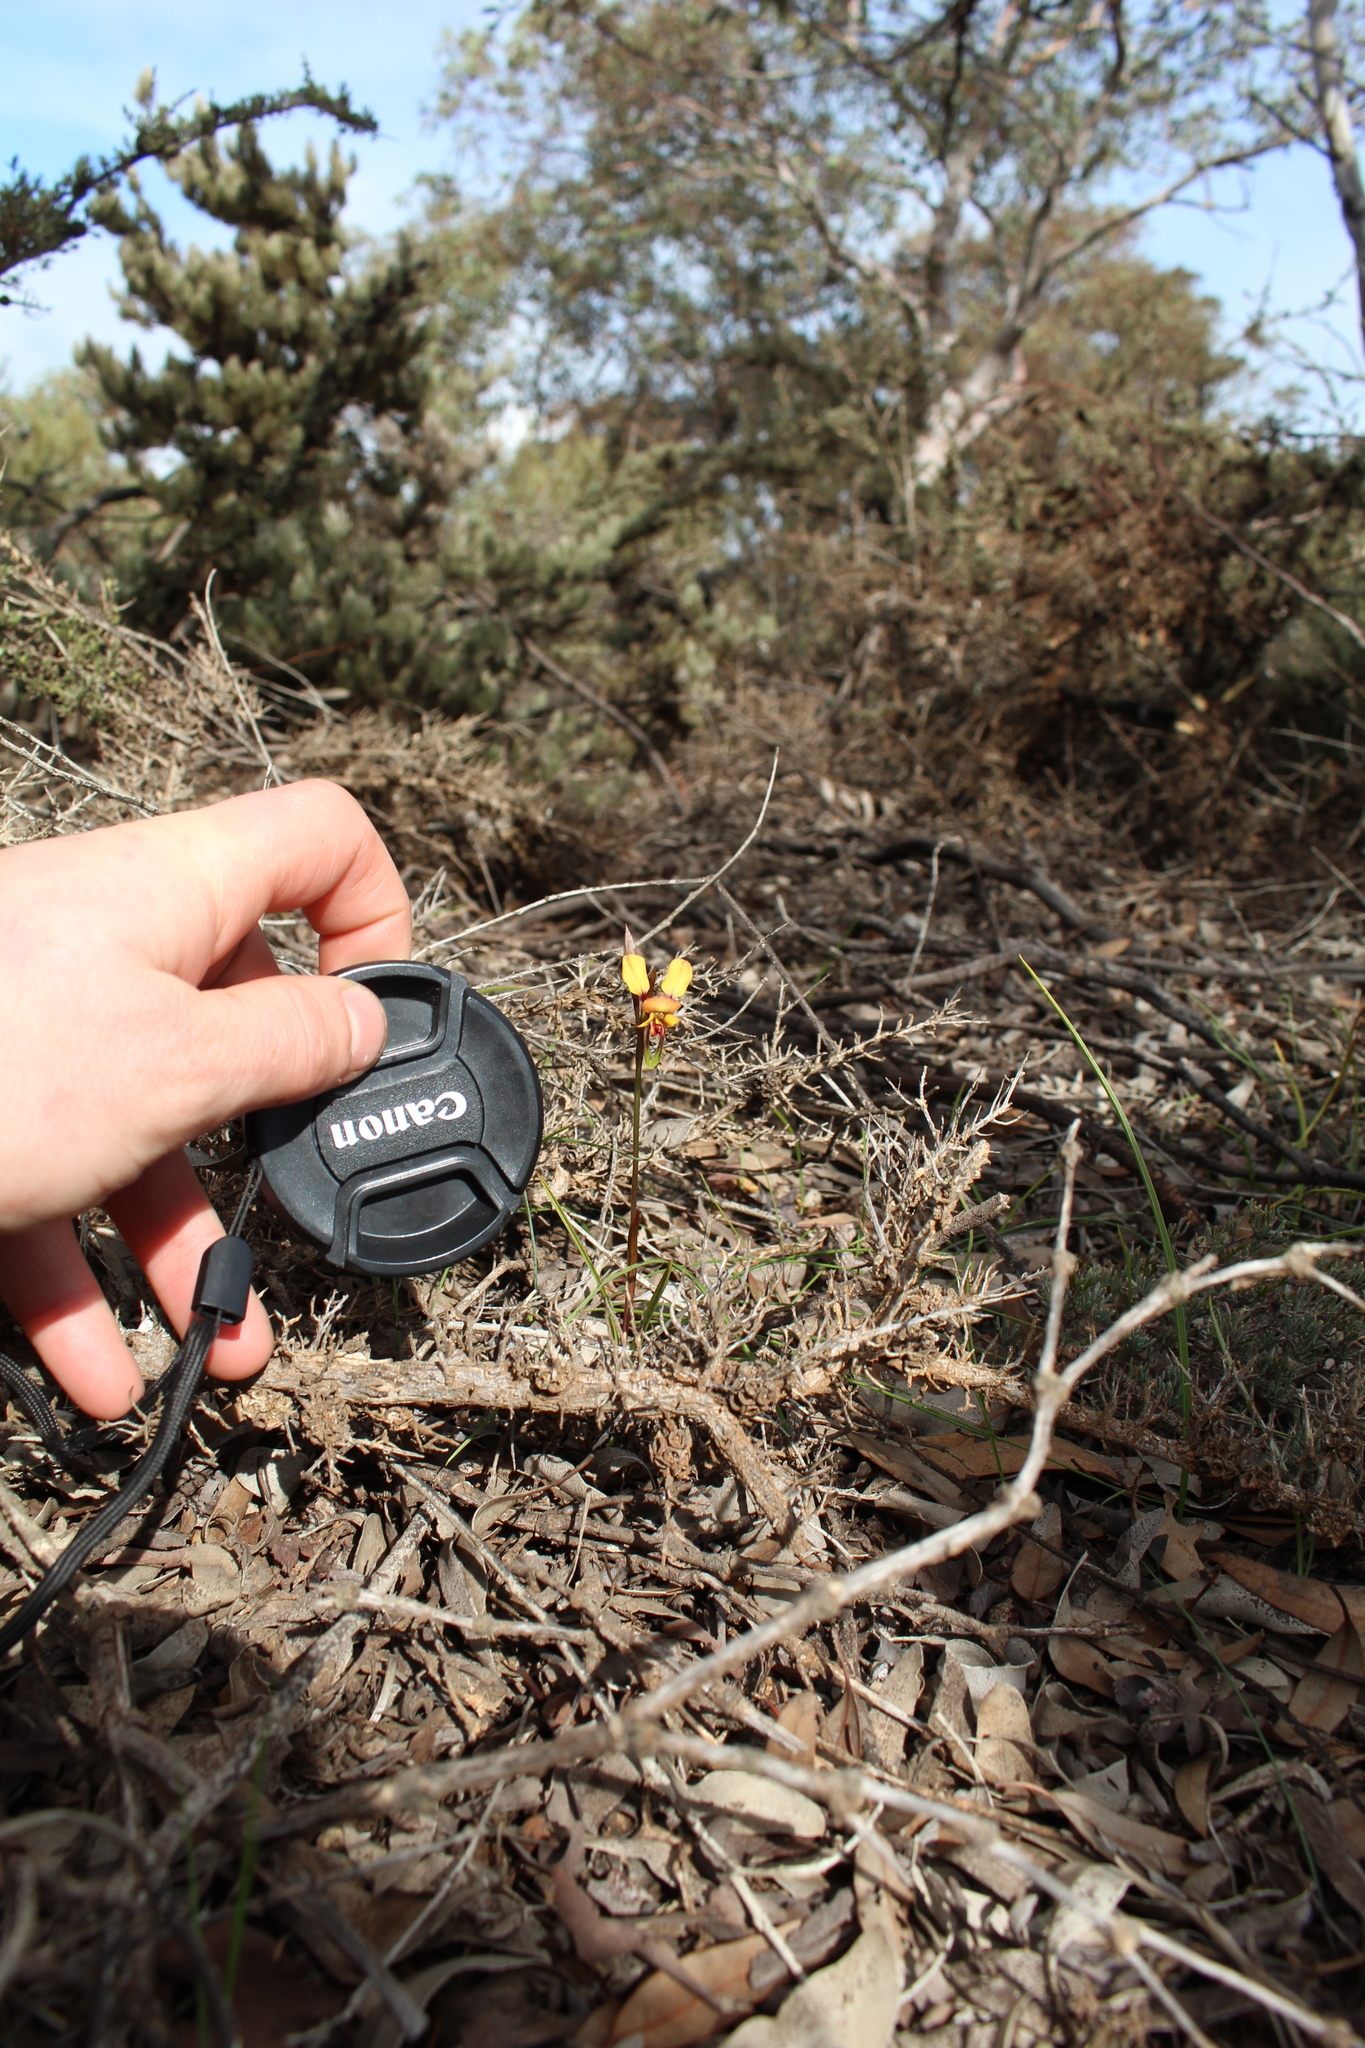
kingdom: Plantae
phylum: Tracheophyta
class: Liliopsida
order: Asparagales
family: Orchidaceae
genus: Diuris
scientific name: Diuris porrifolia
